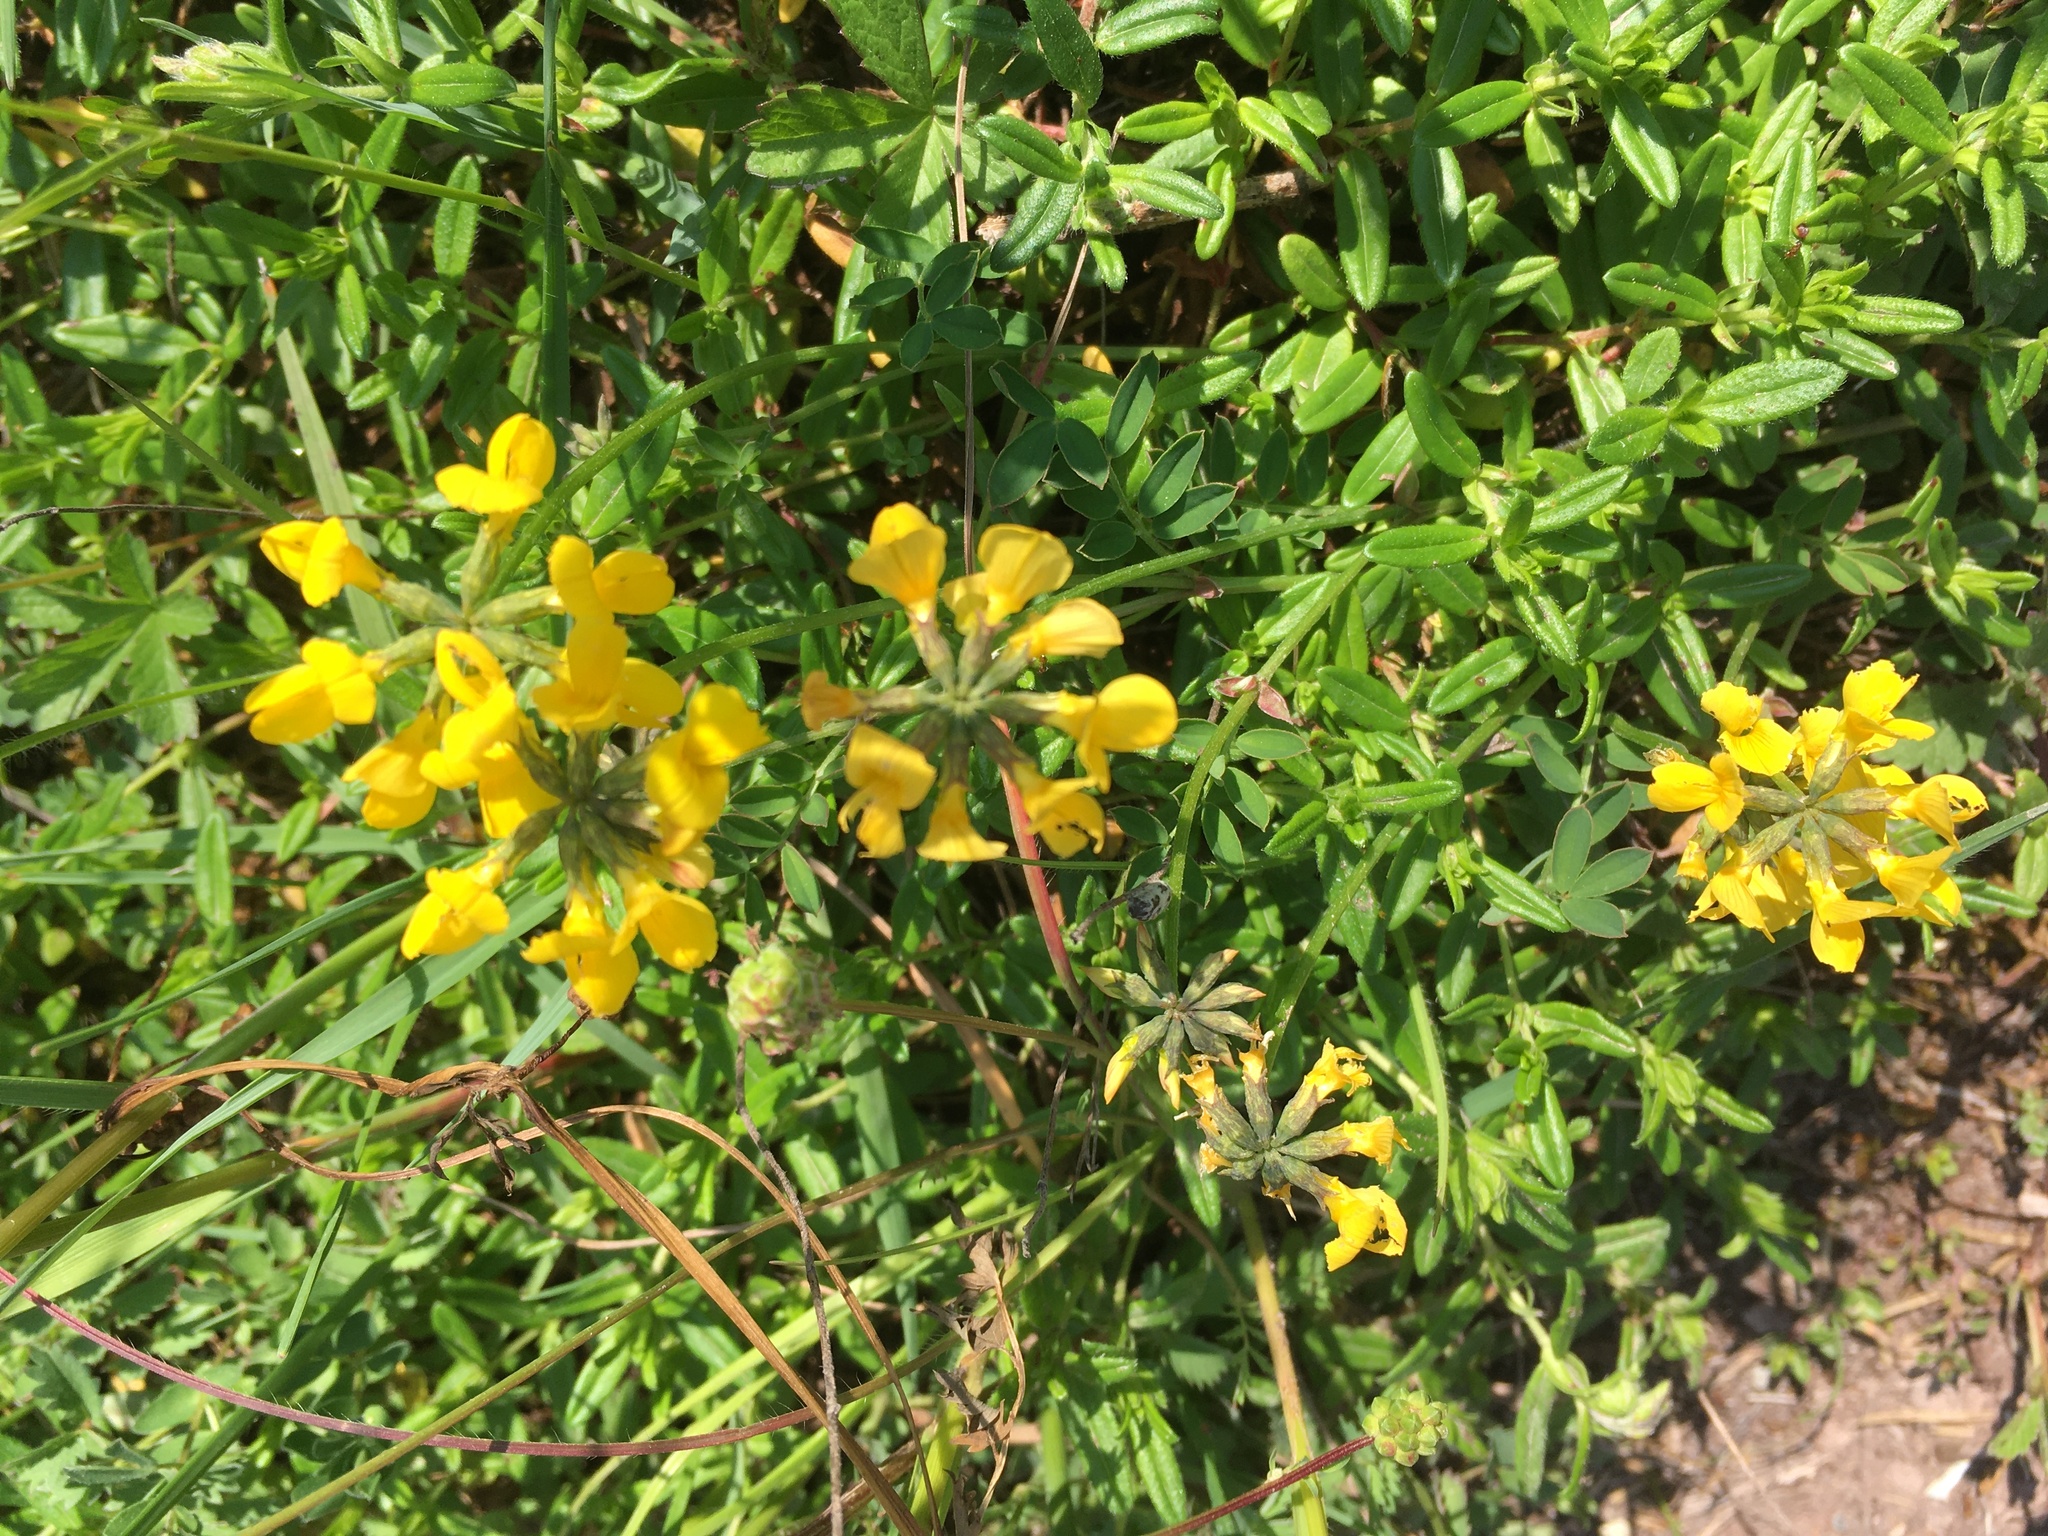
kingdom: Plantae
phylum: Tracheophyta
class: Magnoliopsida
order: Fabales
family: Fabaceae
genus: Hippocrepis
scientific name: Hippocrepis comosa
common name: Horseshoe vetch
